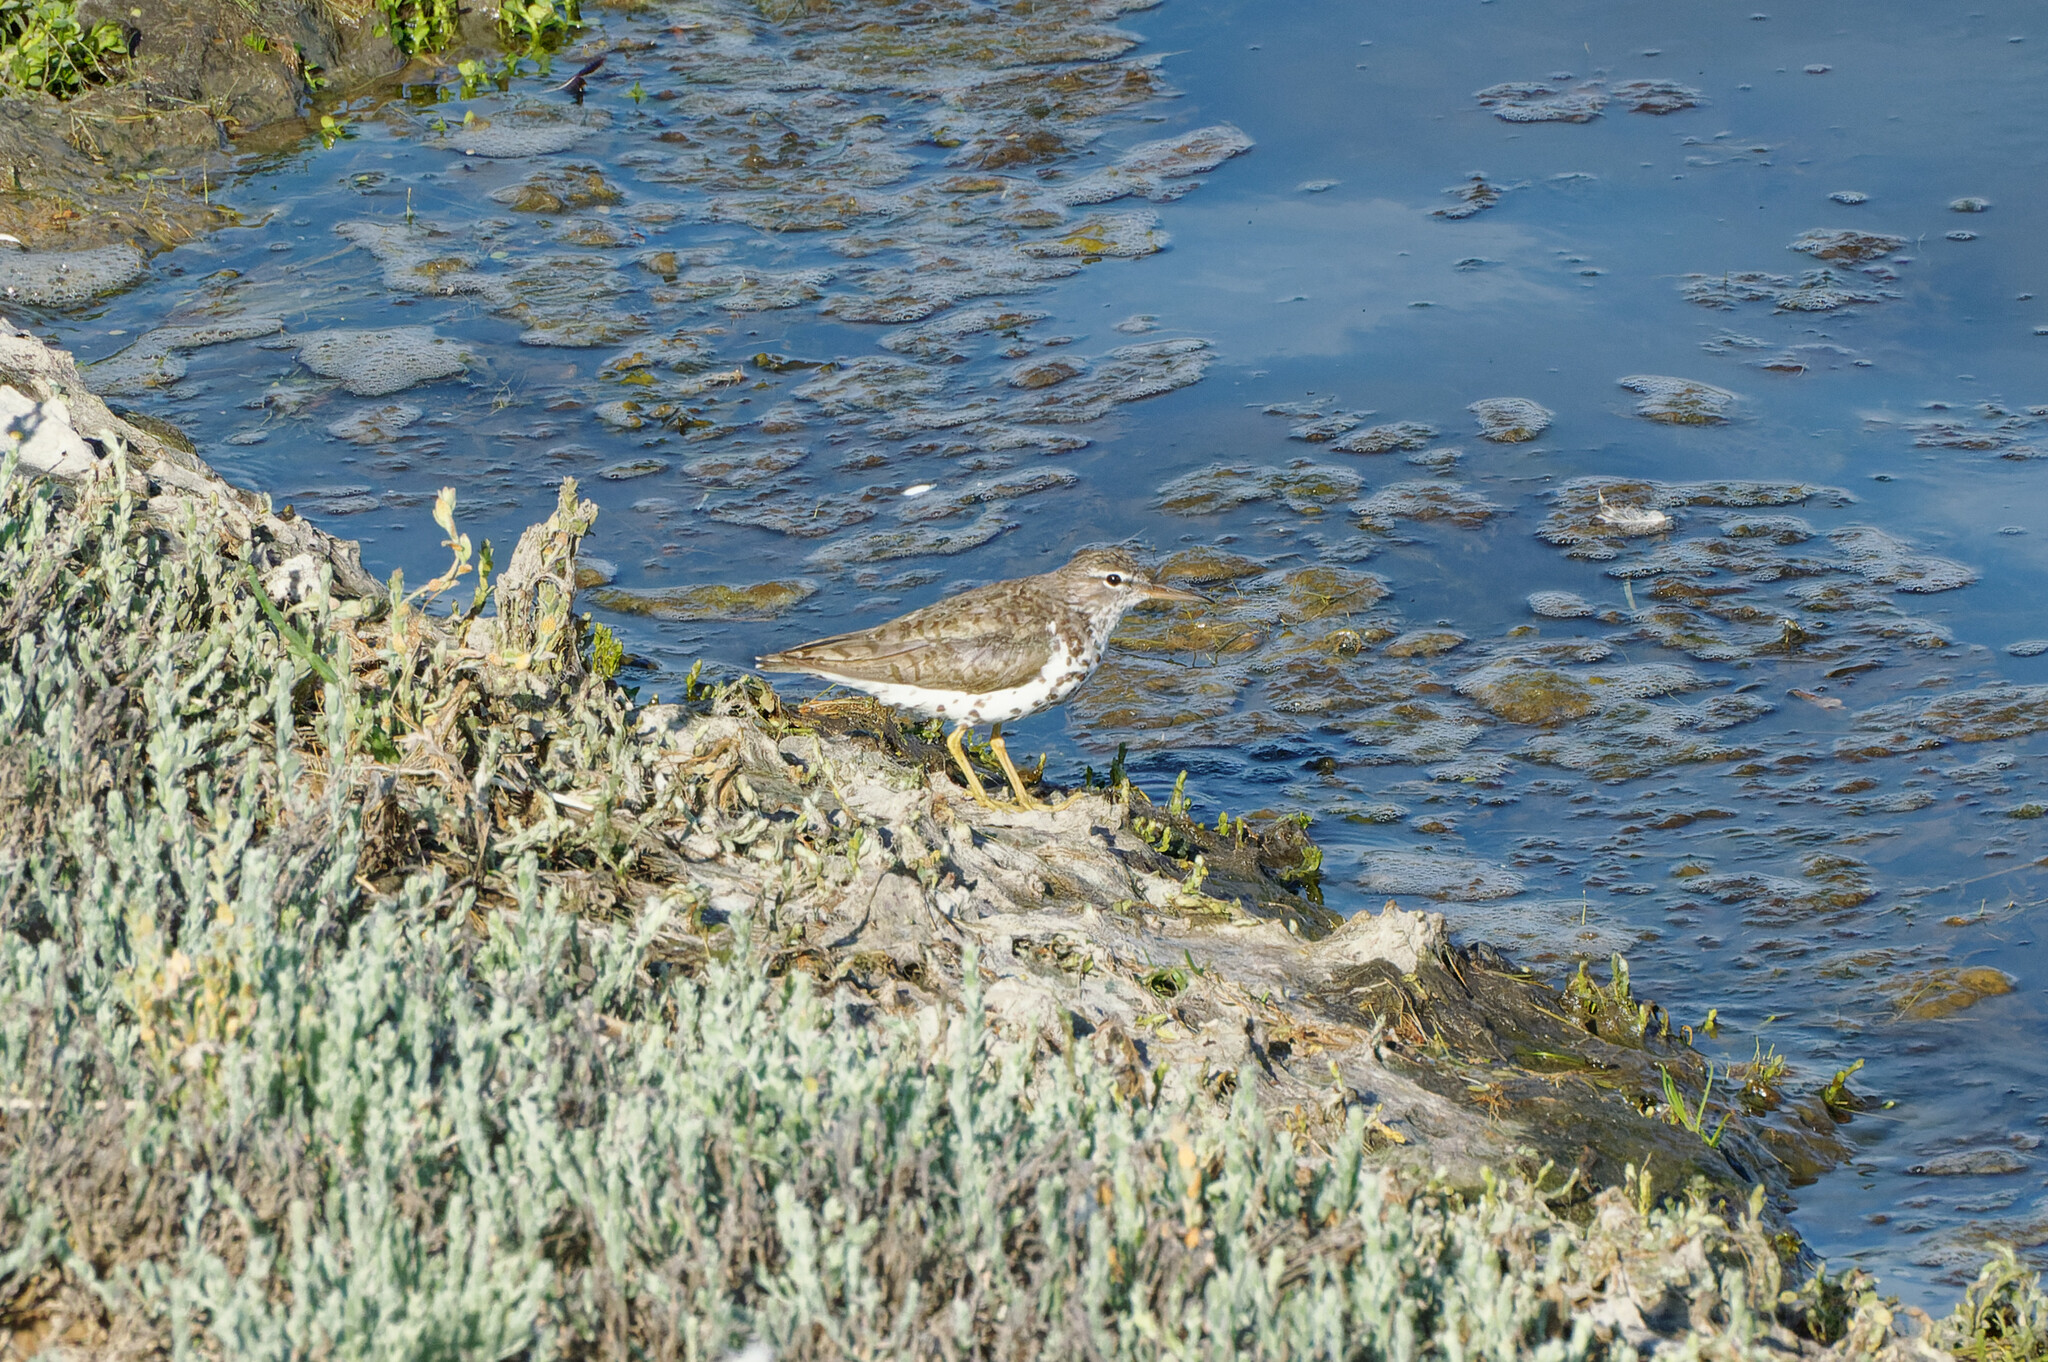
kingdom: Animalia
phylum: Chordata
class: Aves
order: Charadriiformes
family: Scolopacidae
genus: Actitis
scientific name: Actitis macularius
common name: Spotted sandpiper
